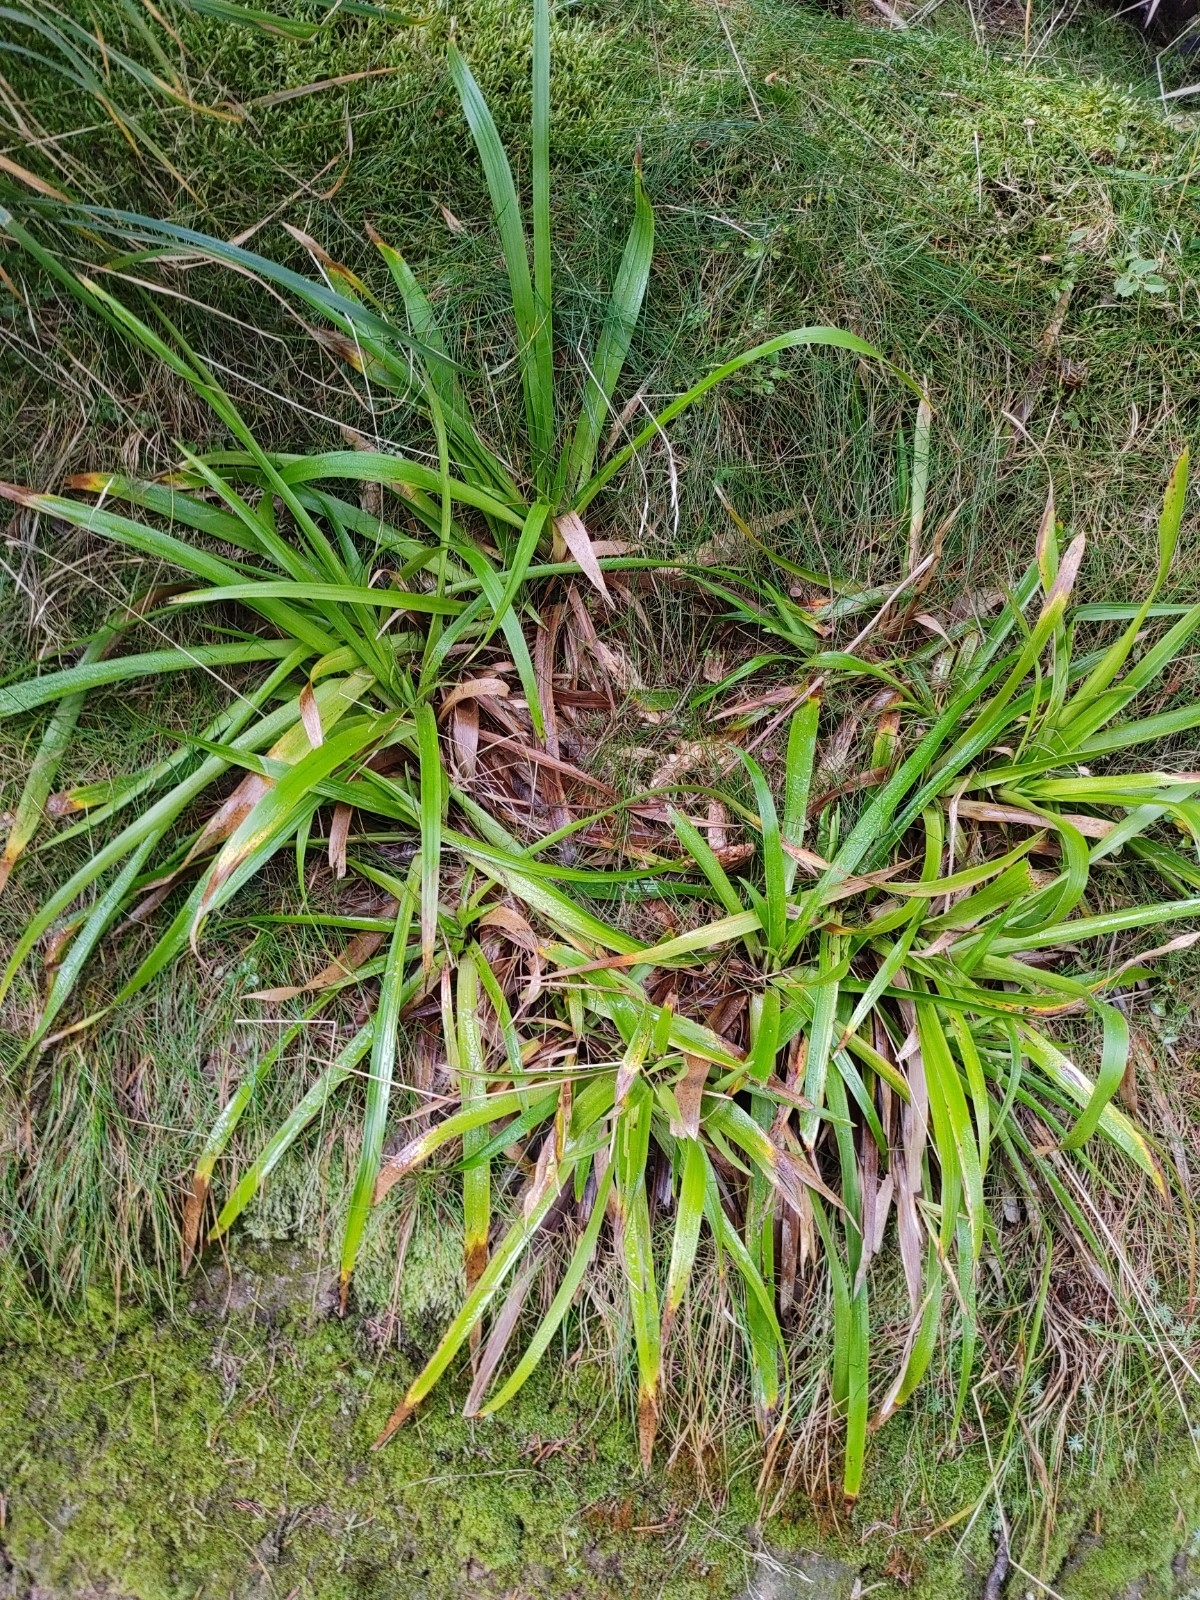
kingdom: Plantae
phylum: Tracheophyta
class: Liliopsida
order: Poales
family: Juncaceae
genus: Luzula
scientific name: Luzula sylvatica
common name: Great wood-rush
